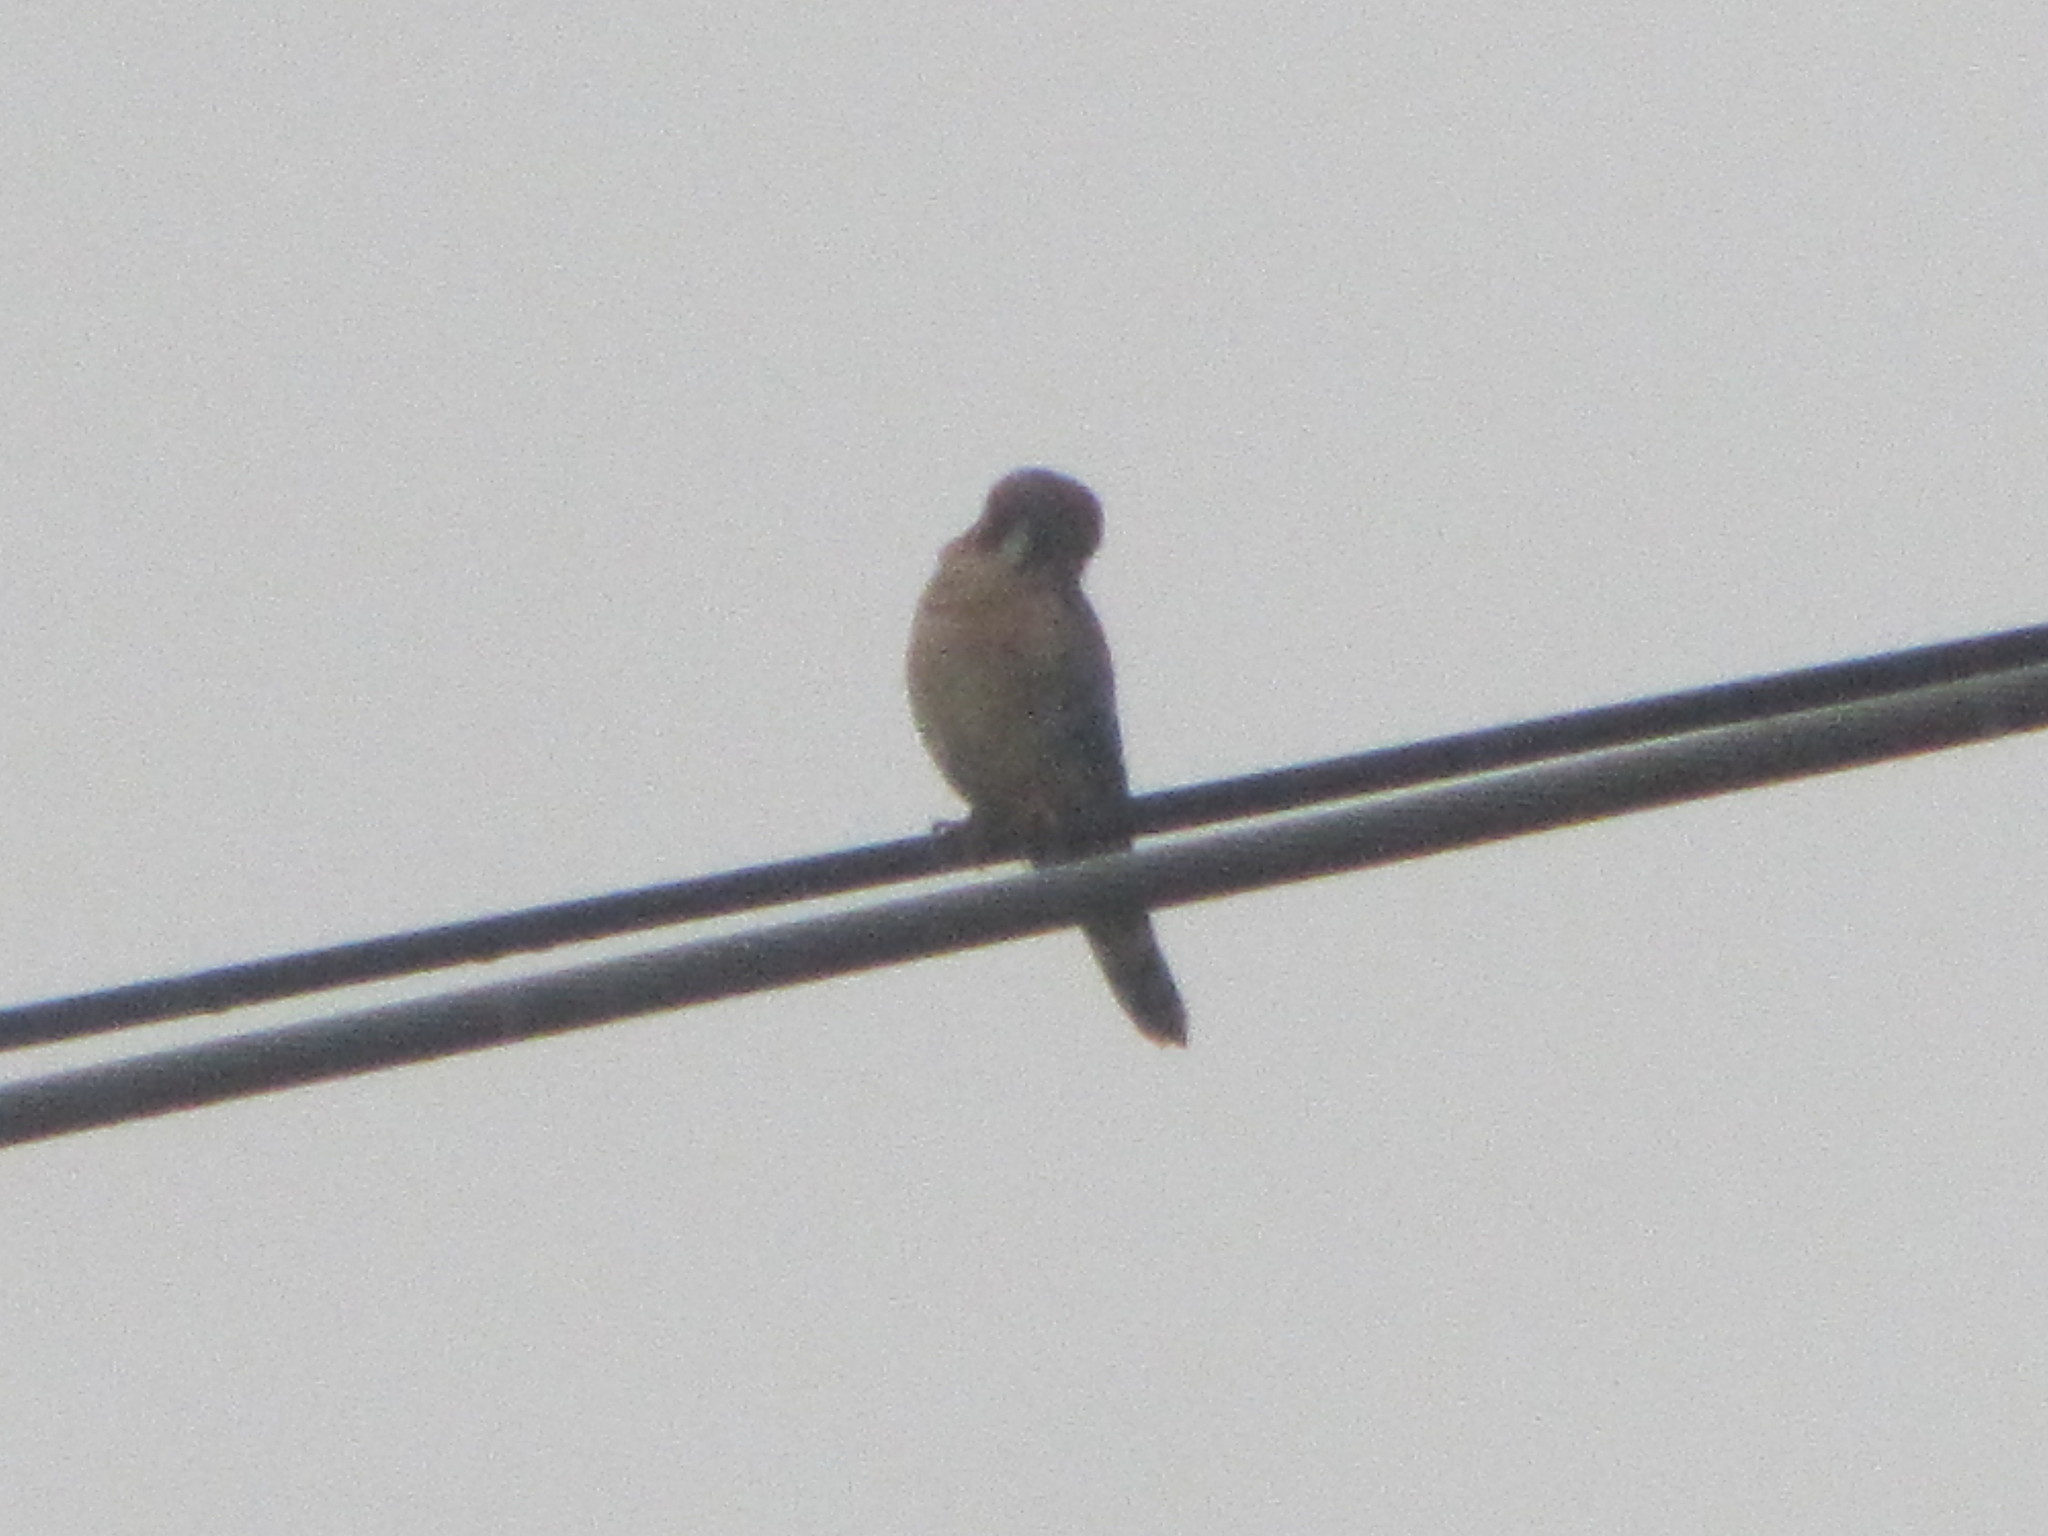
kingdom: Animalia
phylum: Chordata
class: Aves
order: Falconiformes
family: Falconidae
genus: Falco
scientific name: Falco sparverius
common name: American kestrel
